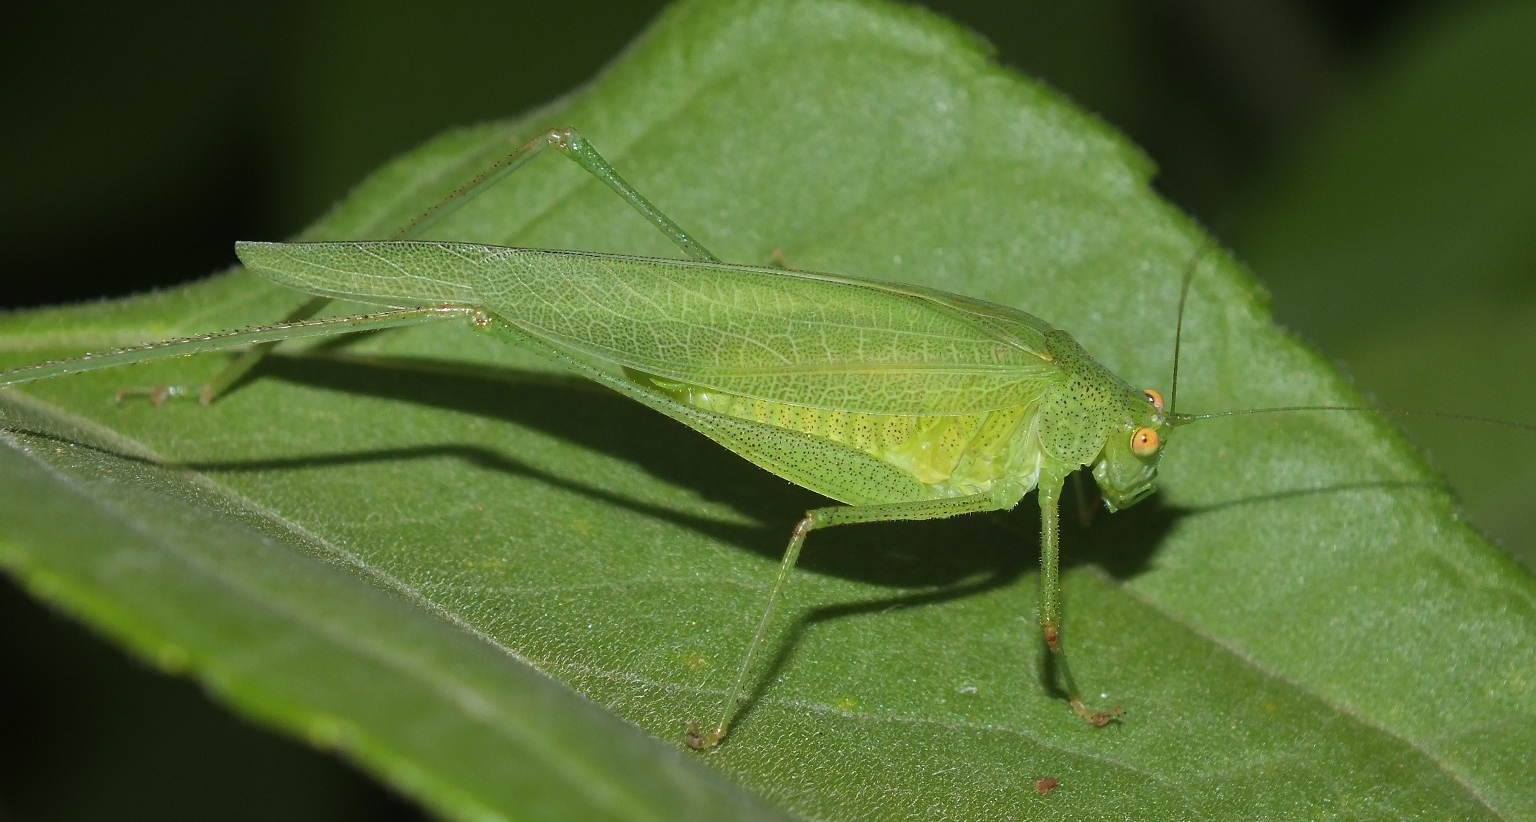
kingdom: Animalia
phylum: Arthropoda
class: Insecta
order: Orthoptera
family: Tettigoniidae
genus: Phaneroptera
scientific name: Phaneroptera nana
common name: Southern sickle bush-cricket
